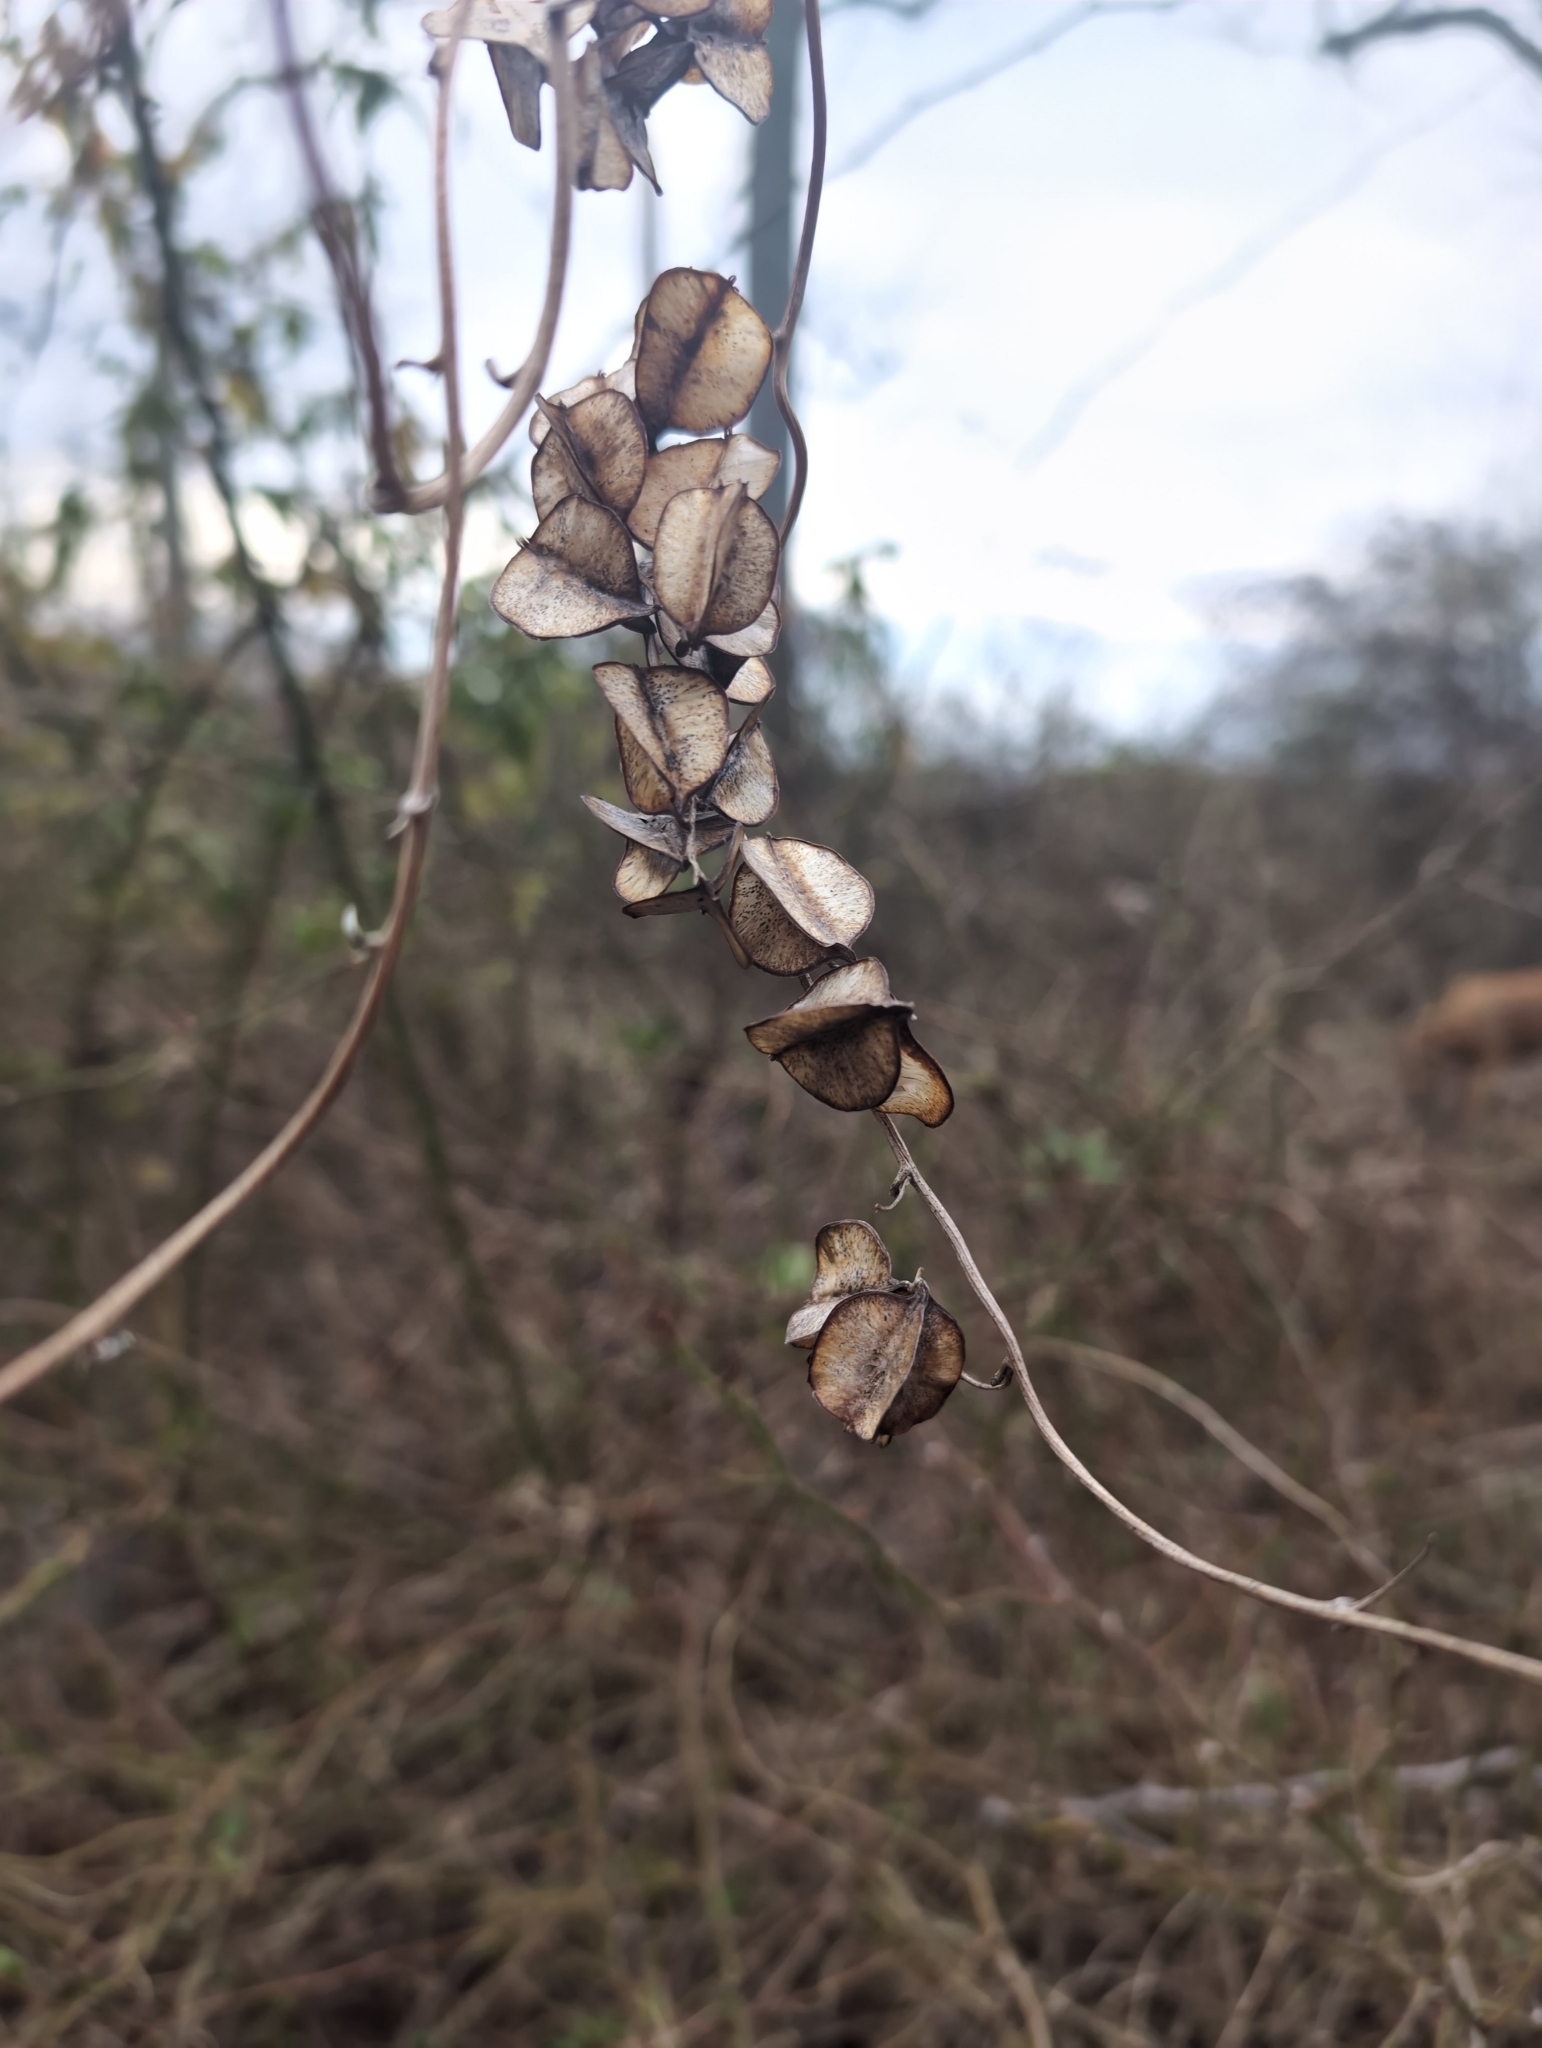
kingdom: Plantae
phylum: Tracheophyta
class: Liliopsida
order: Dioscoreales
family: Dioscoreaceae
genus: Dioscorea
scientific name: Dioscorea villosa
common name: Wild yam
